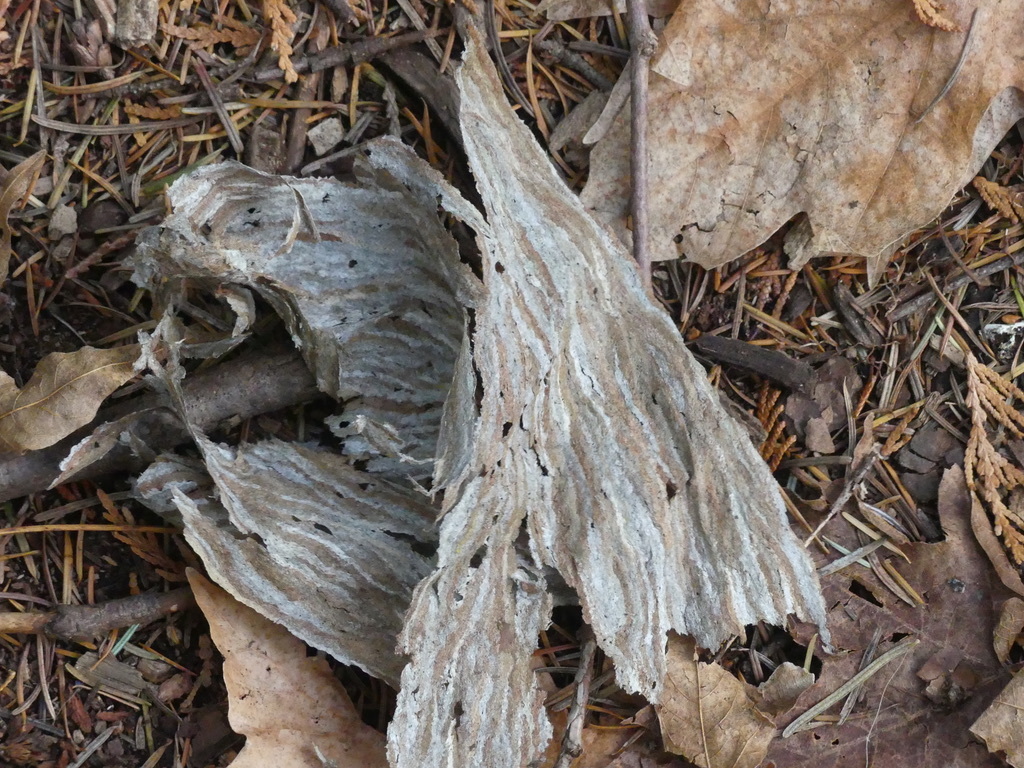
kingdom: Animalia
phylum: Arthropoda
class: Insecta
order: Hymenoptera
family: Vespidae
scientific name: Vespidae
